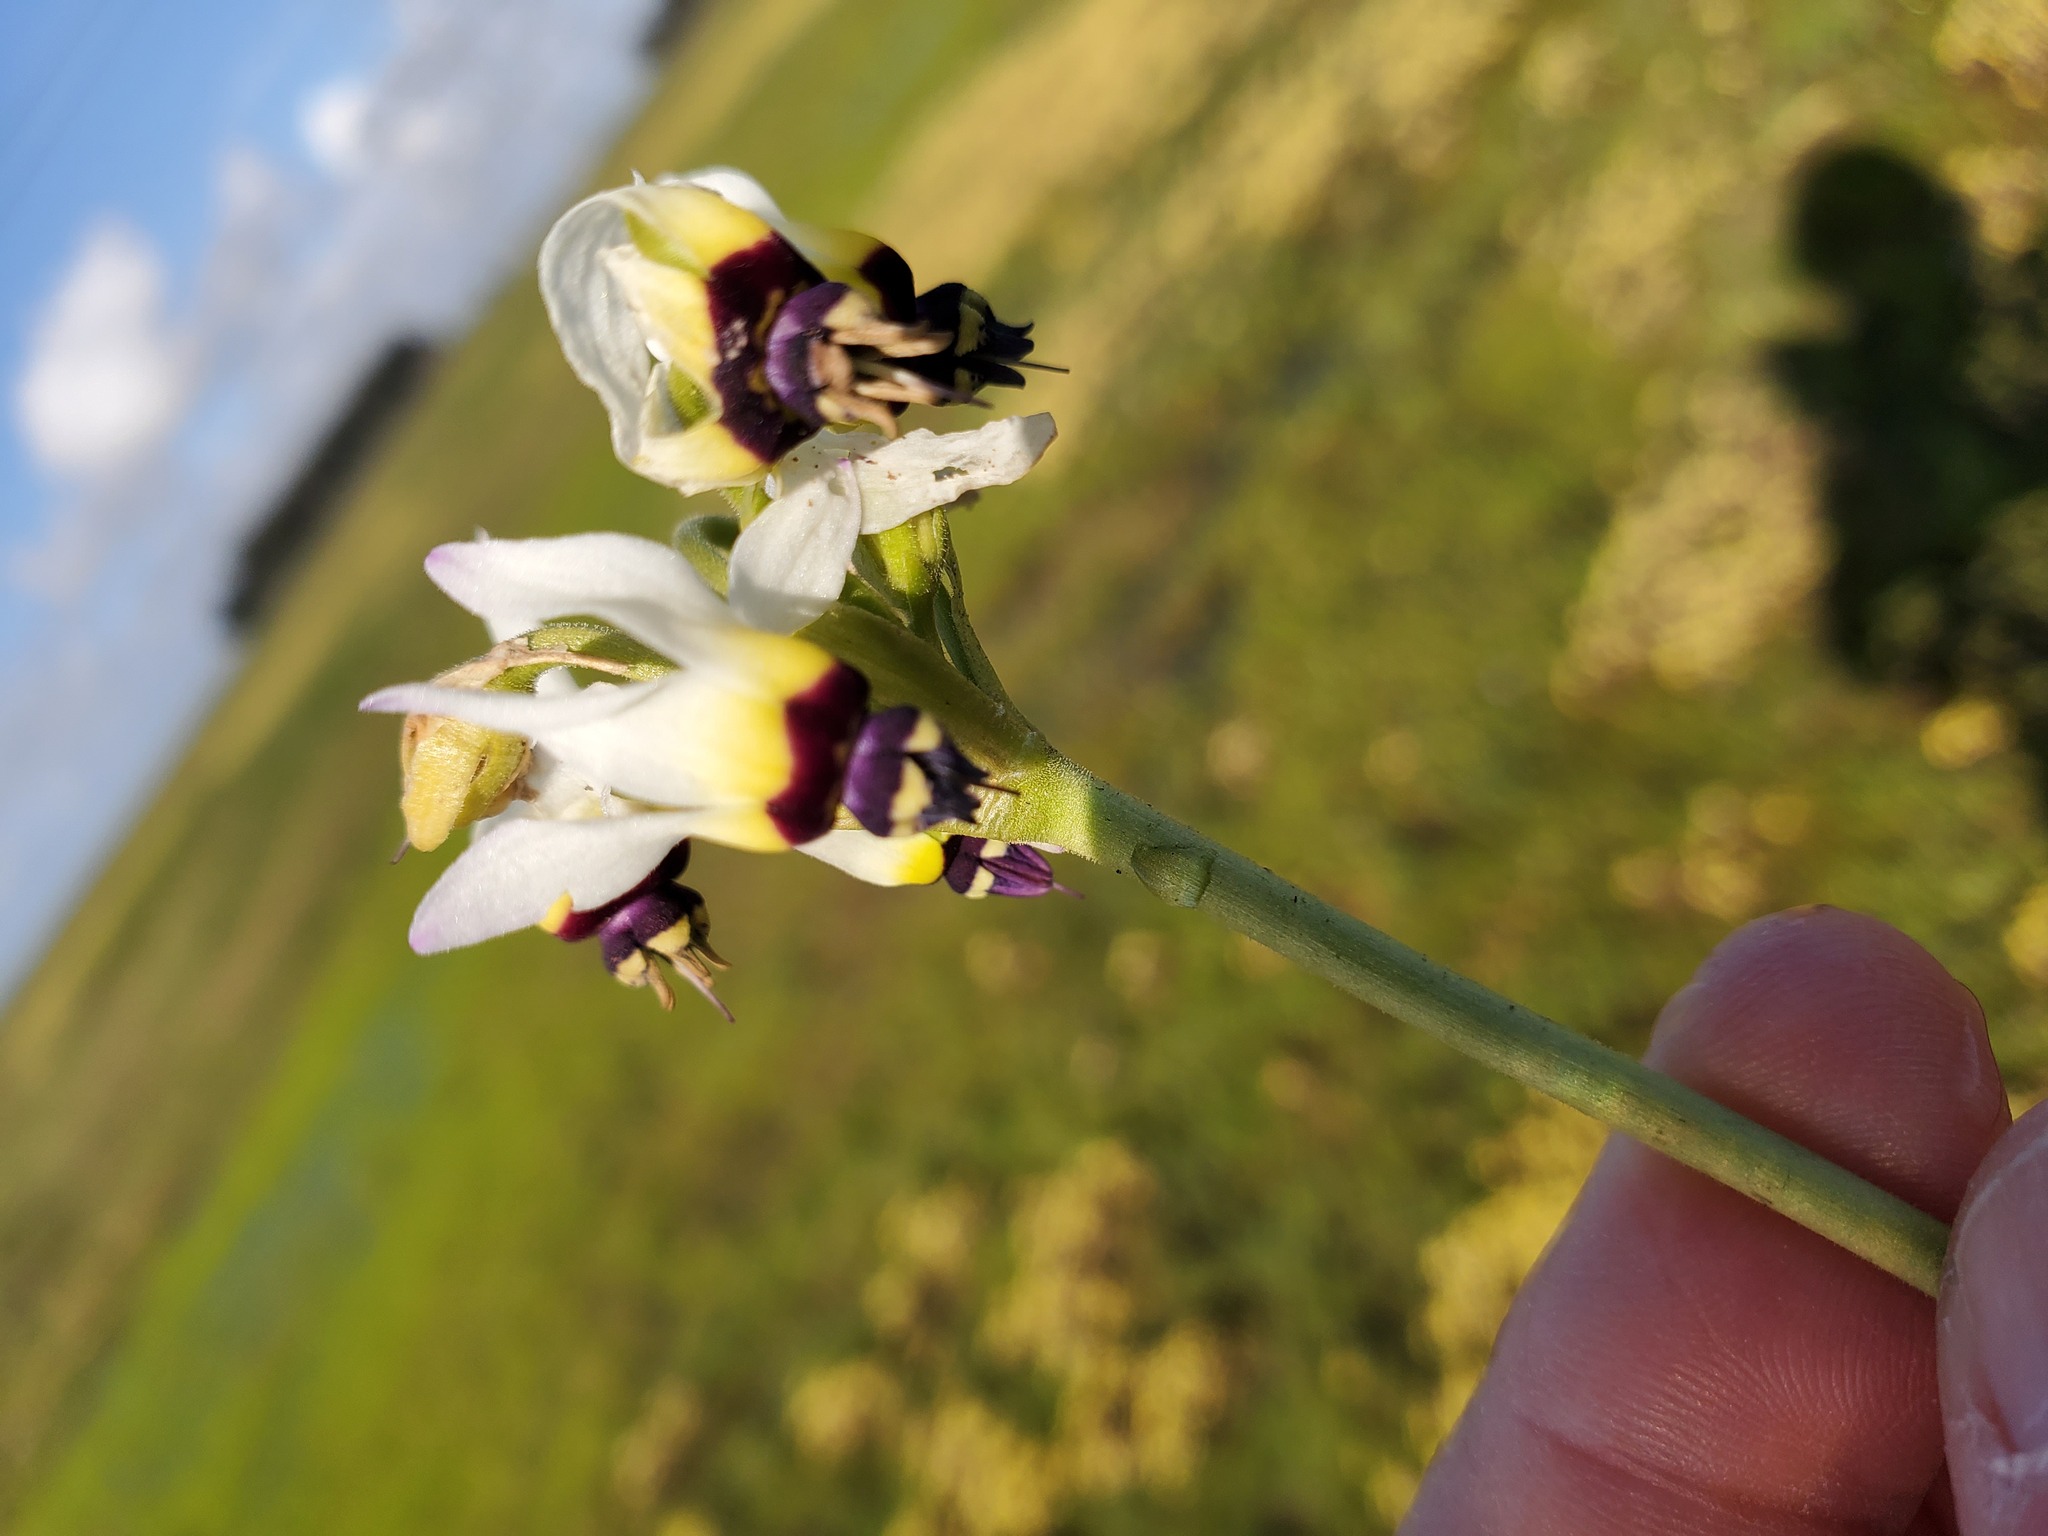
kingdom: Plantae
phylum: Tracheophyta
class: Magnoliopsida
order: Ericales
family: Primulaceae
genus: Dodecatheon
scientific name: Dodecatheon clevelandii
